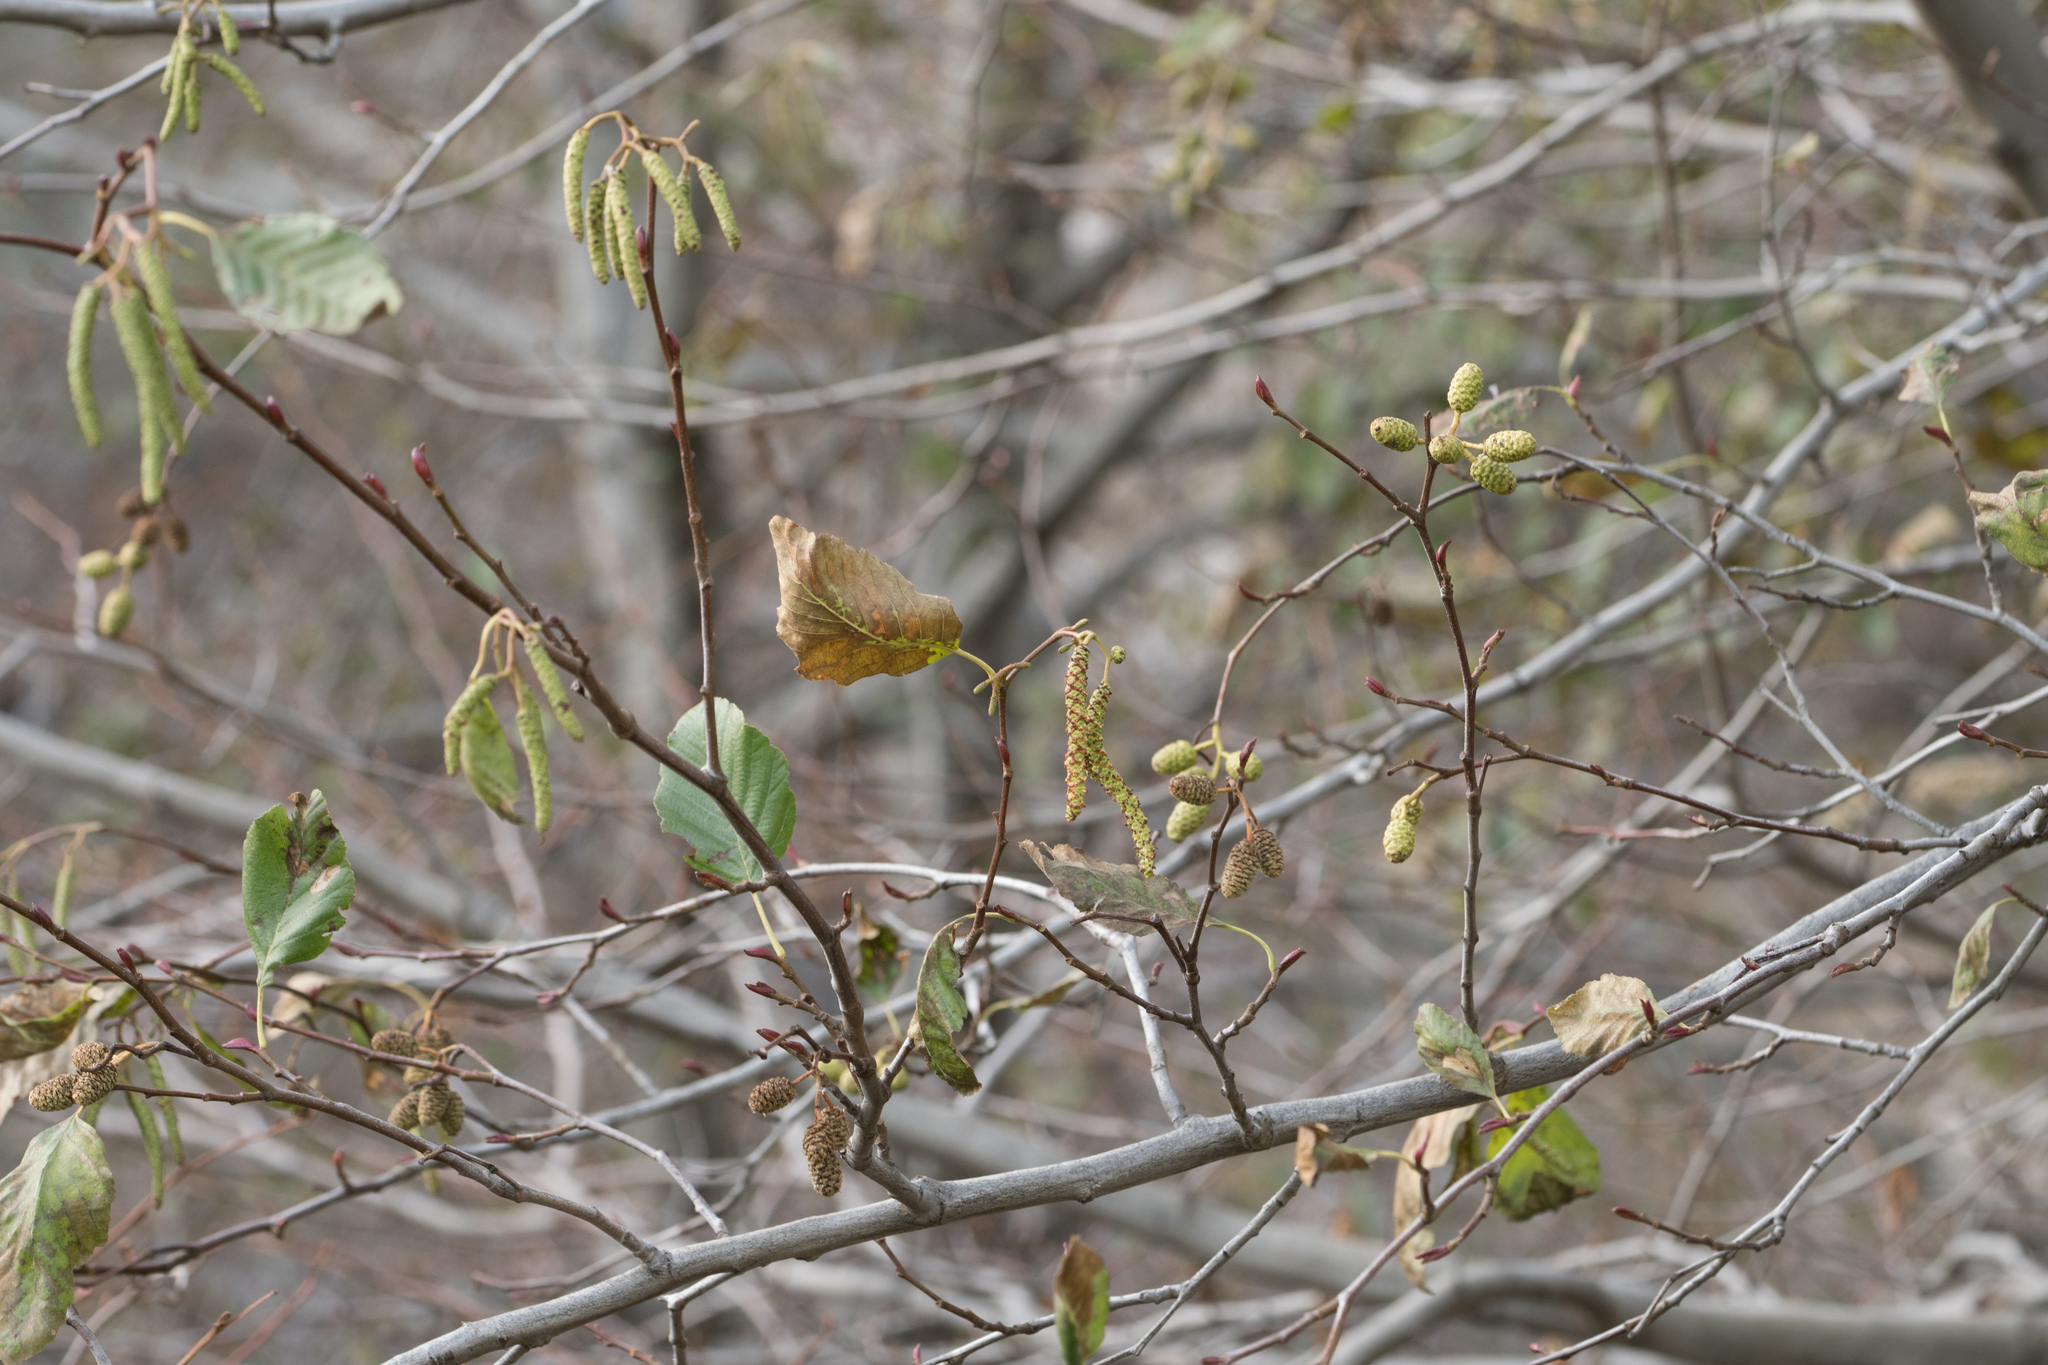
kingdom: Plantae
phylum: Tracheophyta
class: Magnoliopsida
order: Fagales
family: Betulaceae
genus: Alnus
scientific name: Alnus rhombifolia
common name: California alder
